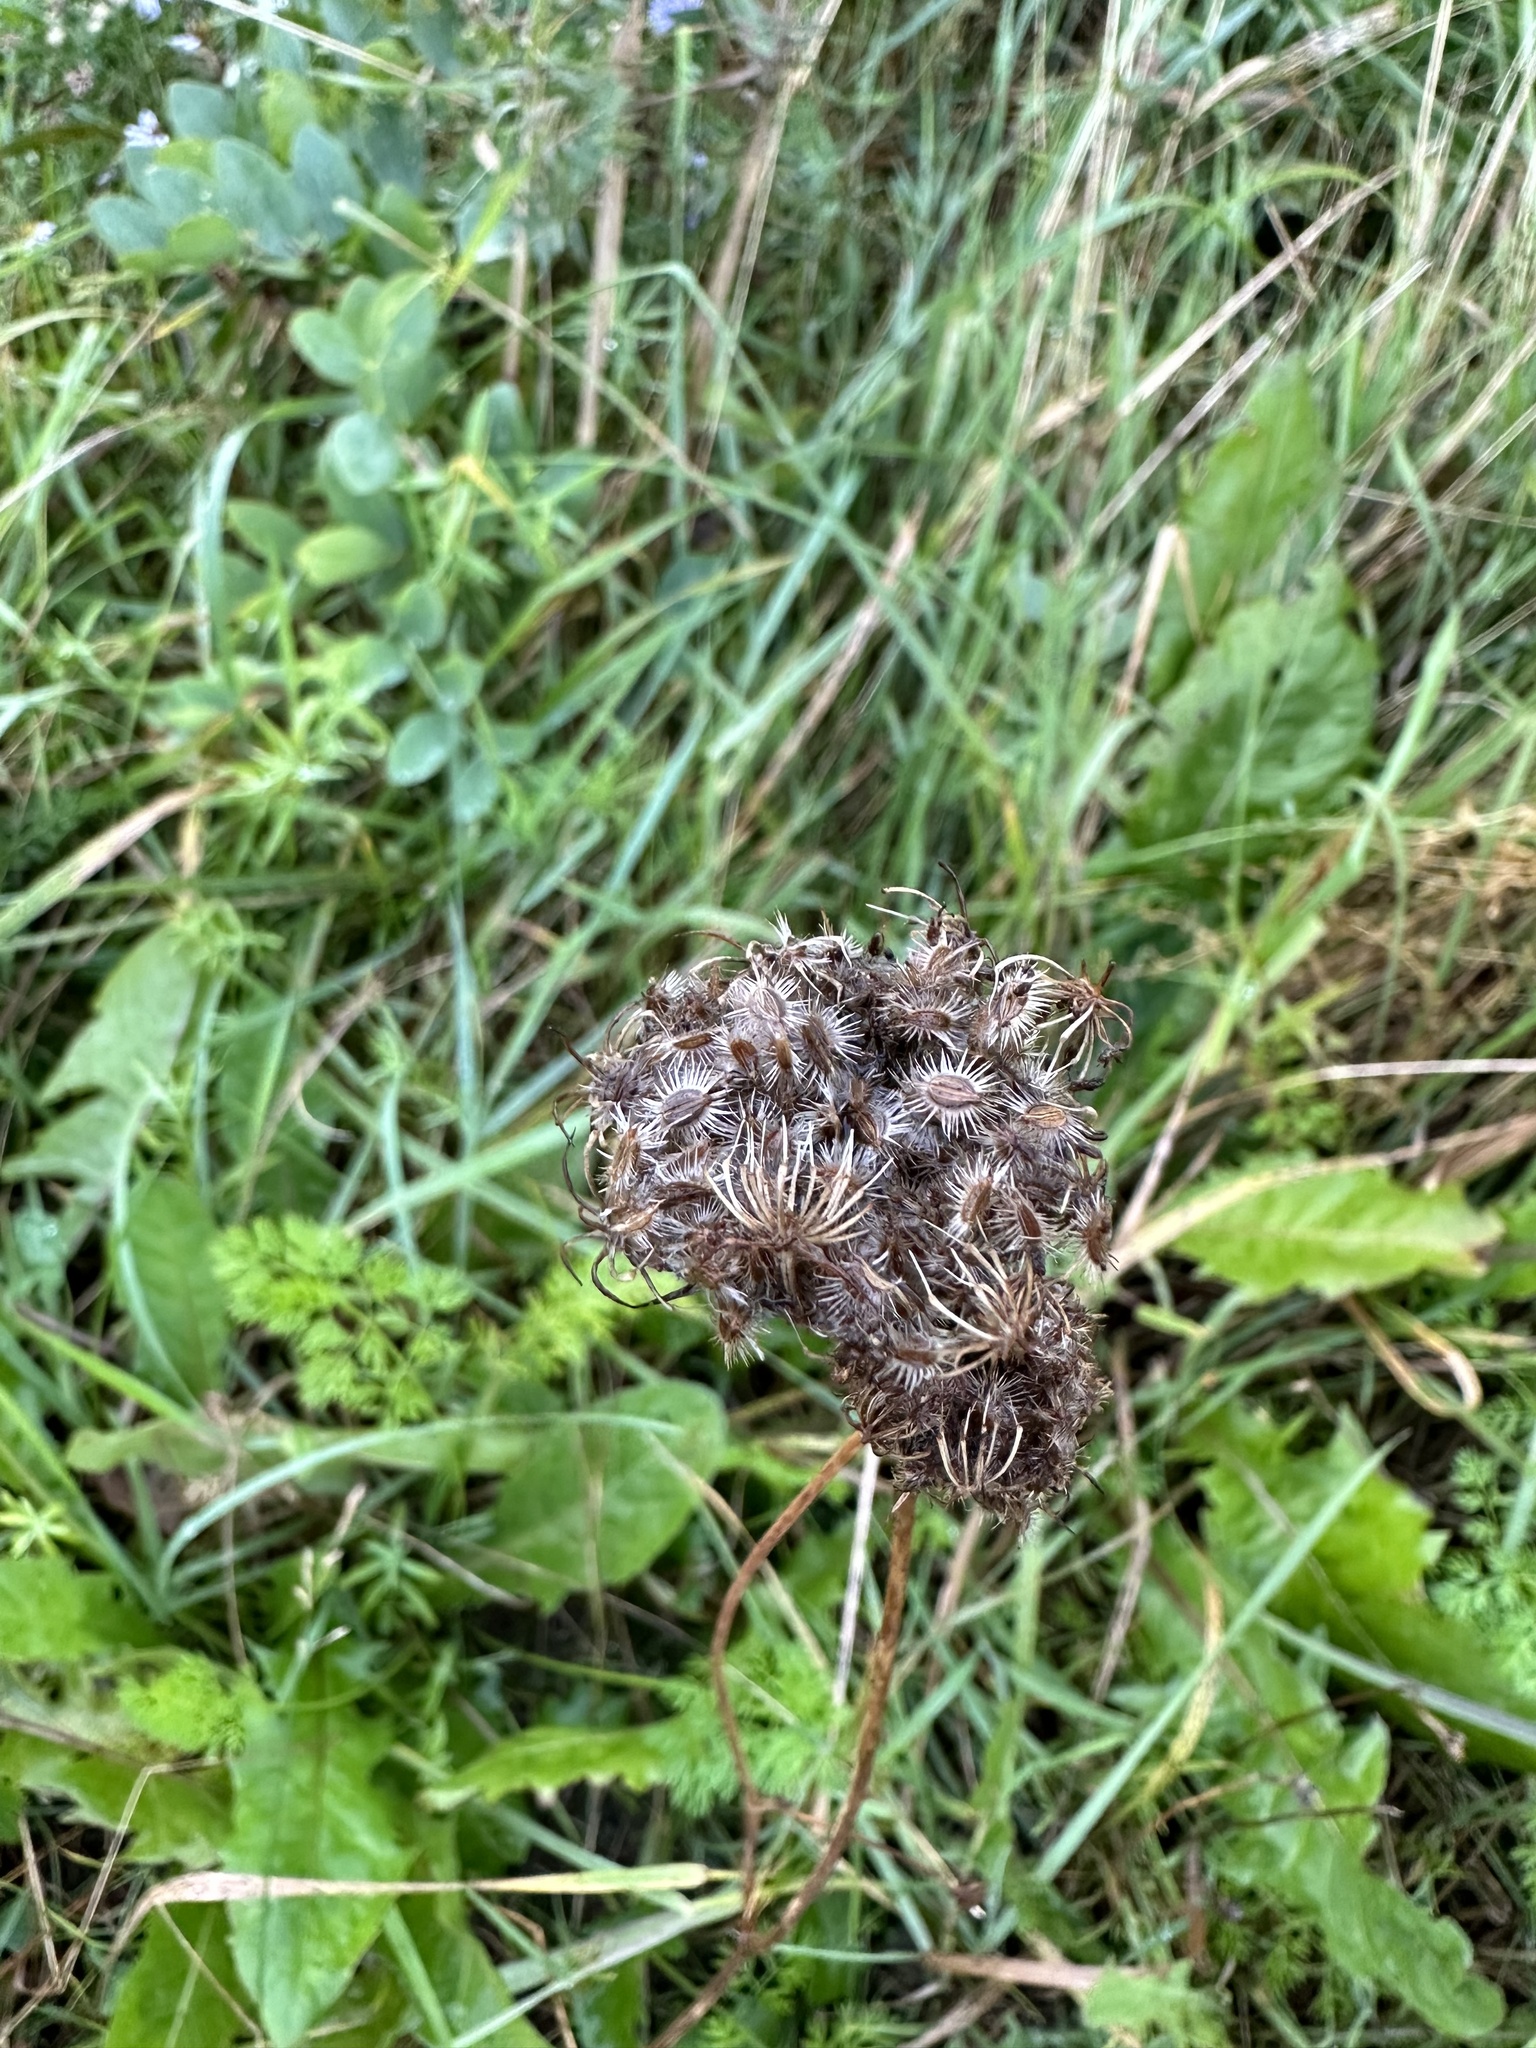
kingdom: Plantae
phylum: Tracheophyta
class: Magnoliopsida
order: Apiales
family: Apiaceae
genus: Daucus
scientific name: Daucus carota
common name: Wild carrot
